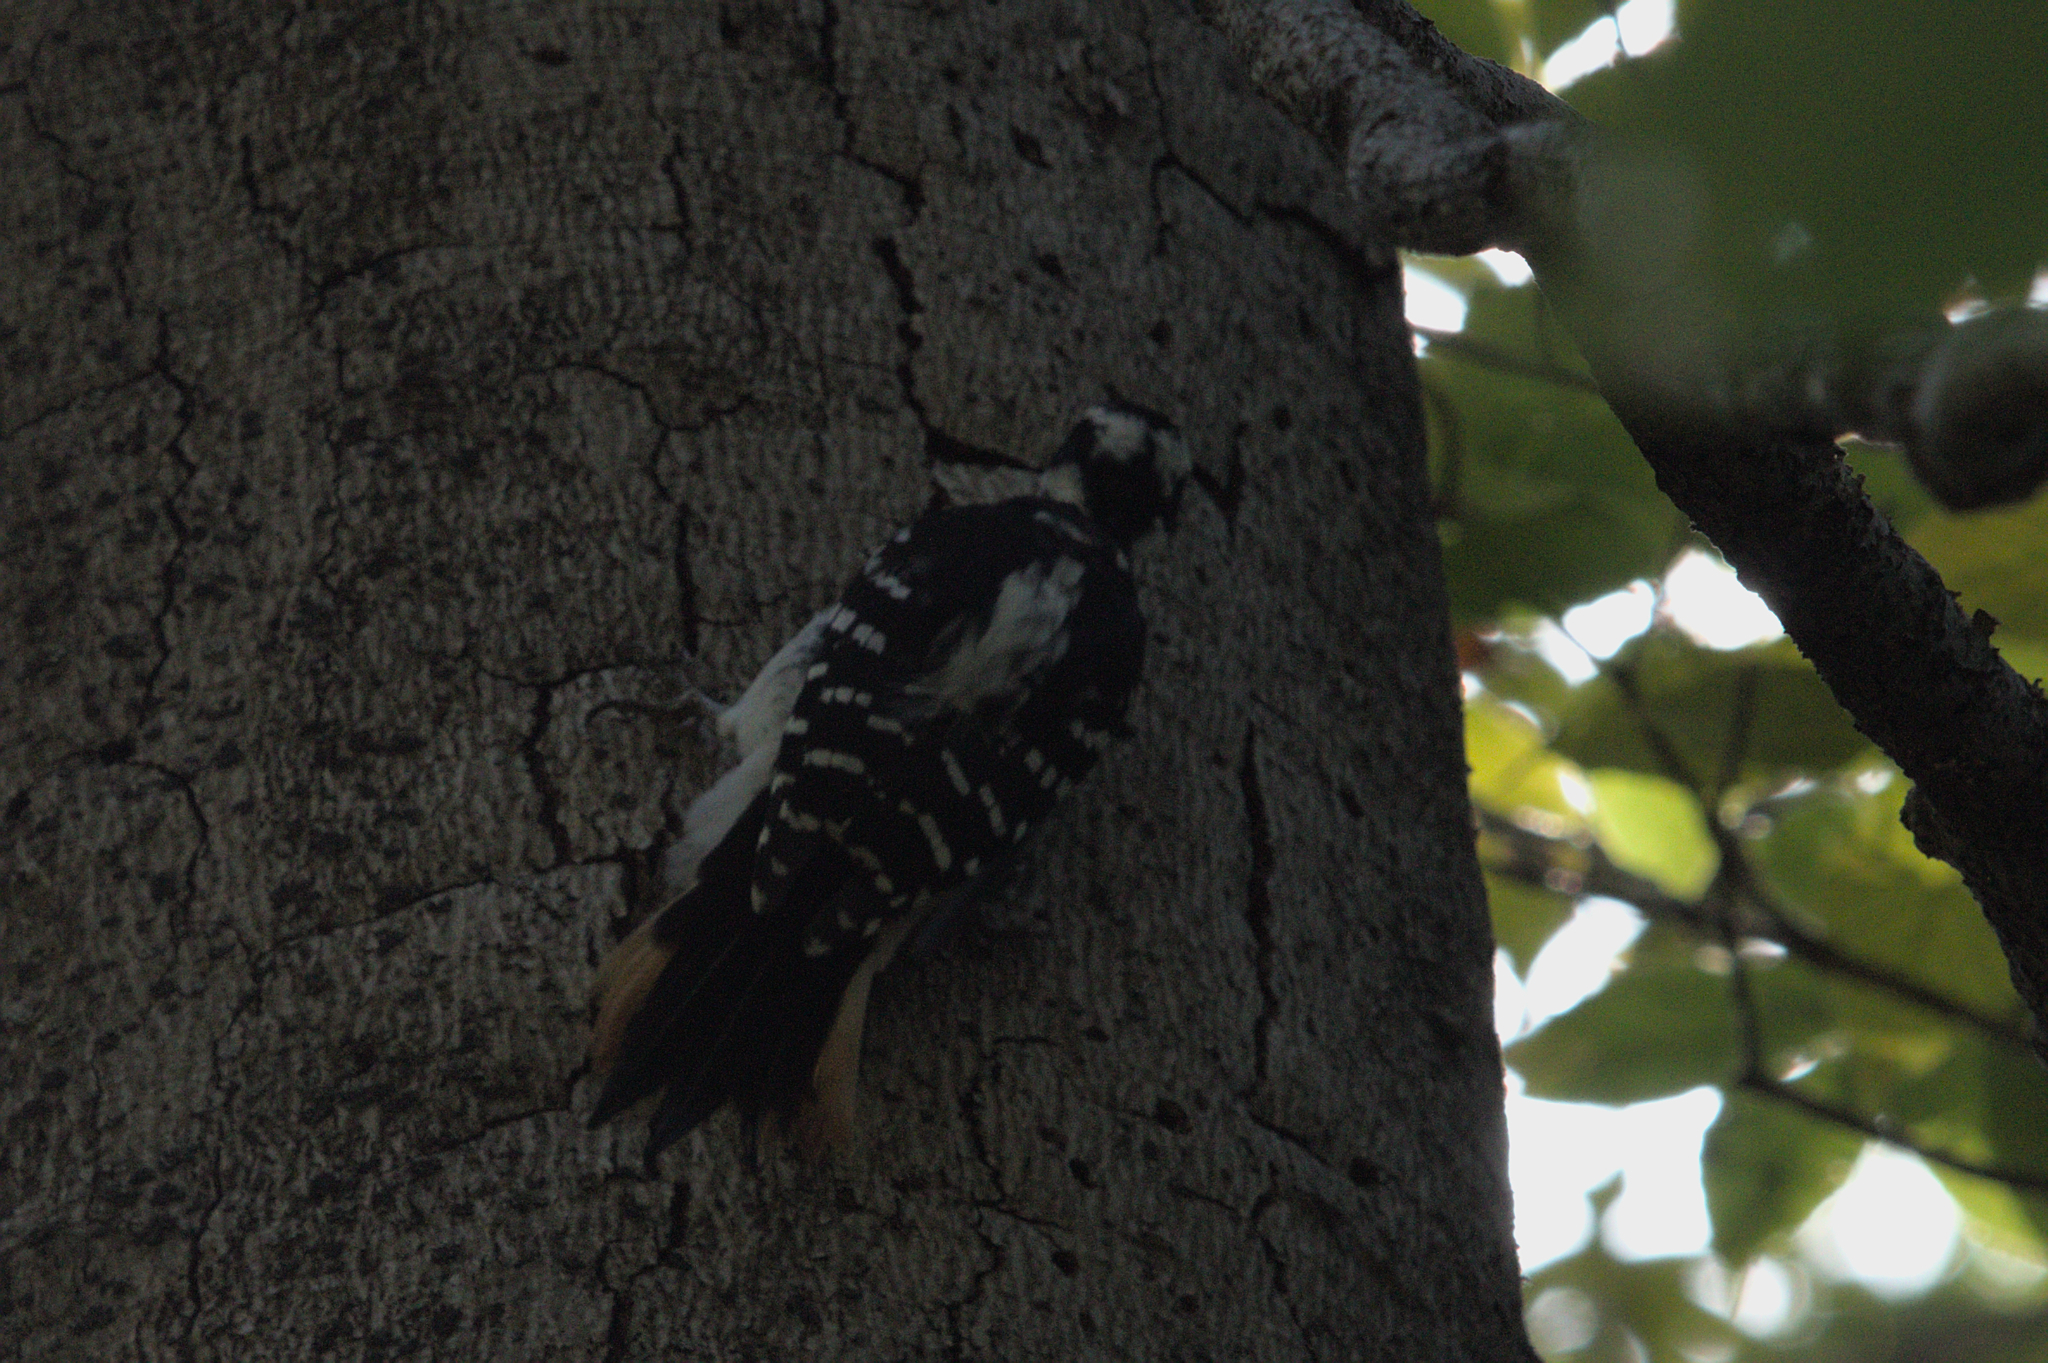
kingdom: Animalia
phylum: Chordata
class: Aves
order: Piciformes
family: Picidae
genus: Leuconotopicus
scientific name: Leuconotopicus villosus
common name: Hairy woodpecker
